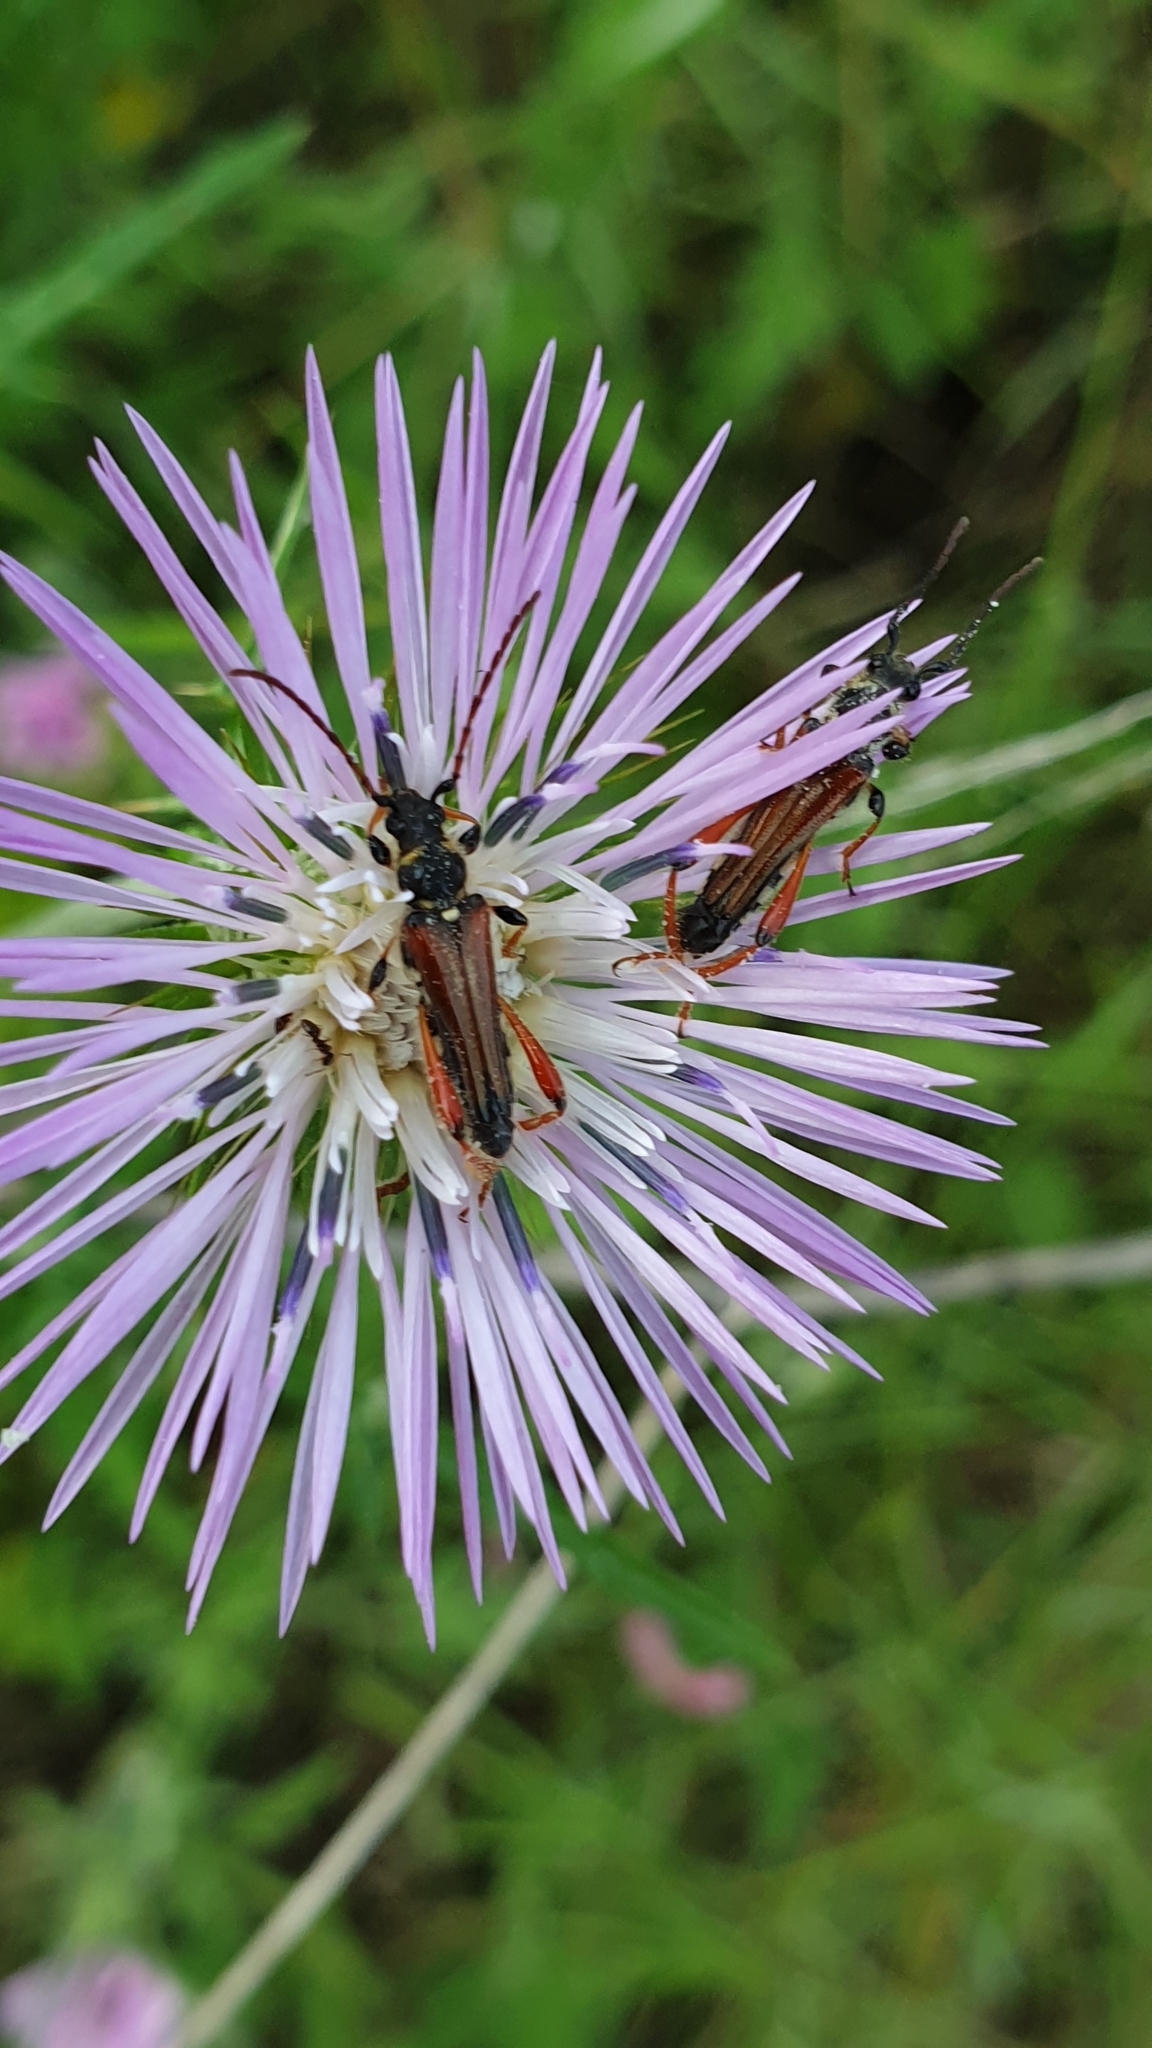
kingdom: Animalia
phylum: Arthropoda
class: Insecta
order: Coleoptera
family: Cerambycidae
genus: Stenopterus
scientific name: Stenopterus rufus
